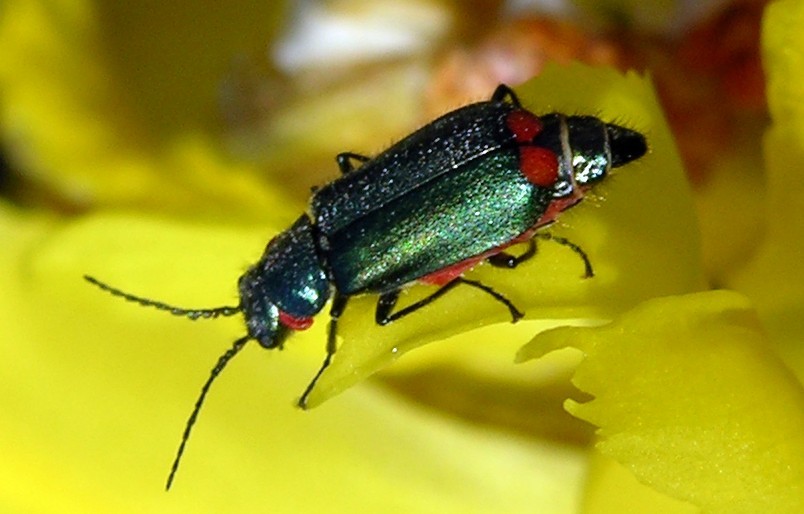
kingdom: Animalia
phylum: Arthropoda
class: Insecta
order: Coleoptera
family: Melyridae
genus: Malachius
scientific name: Malachius bipustulatus
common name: Malachite beetle
